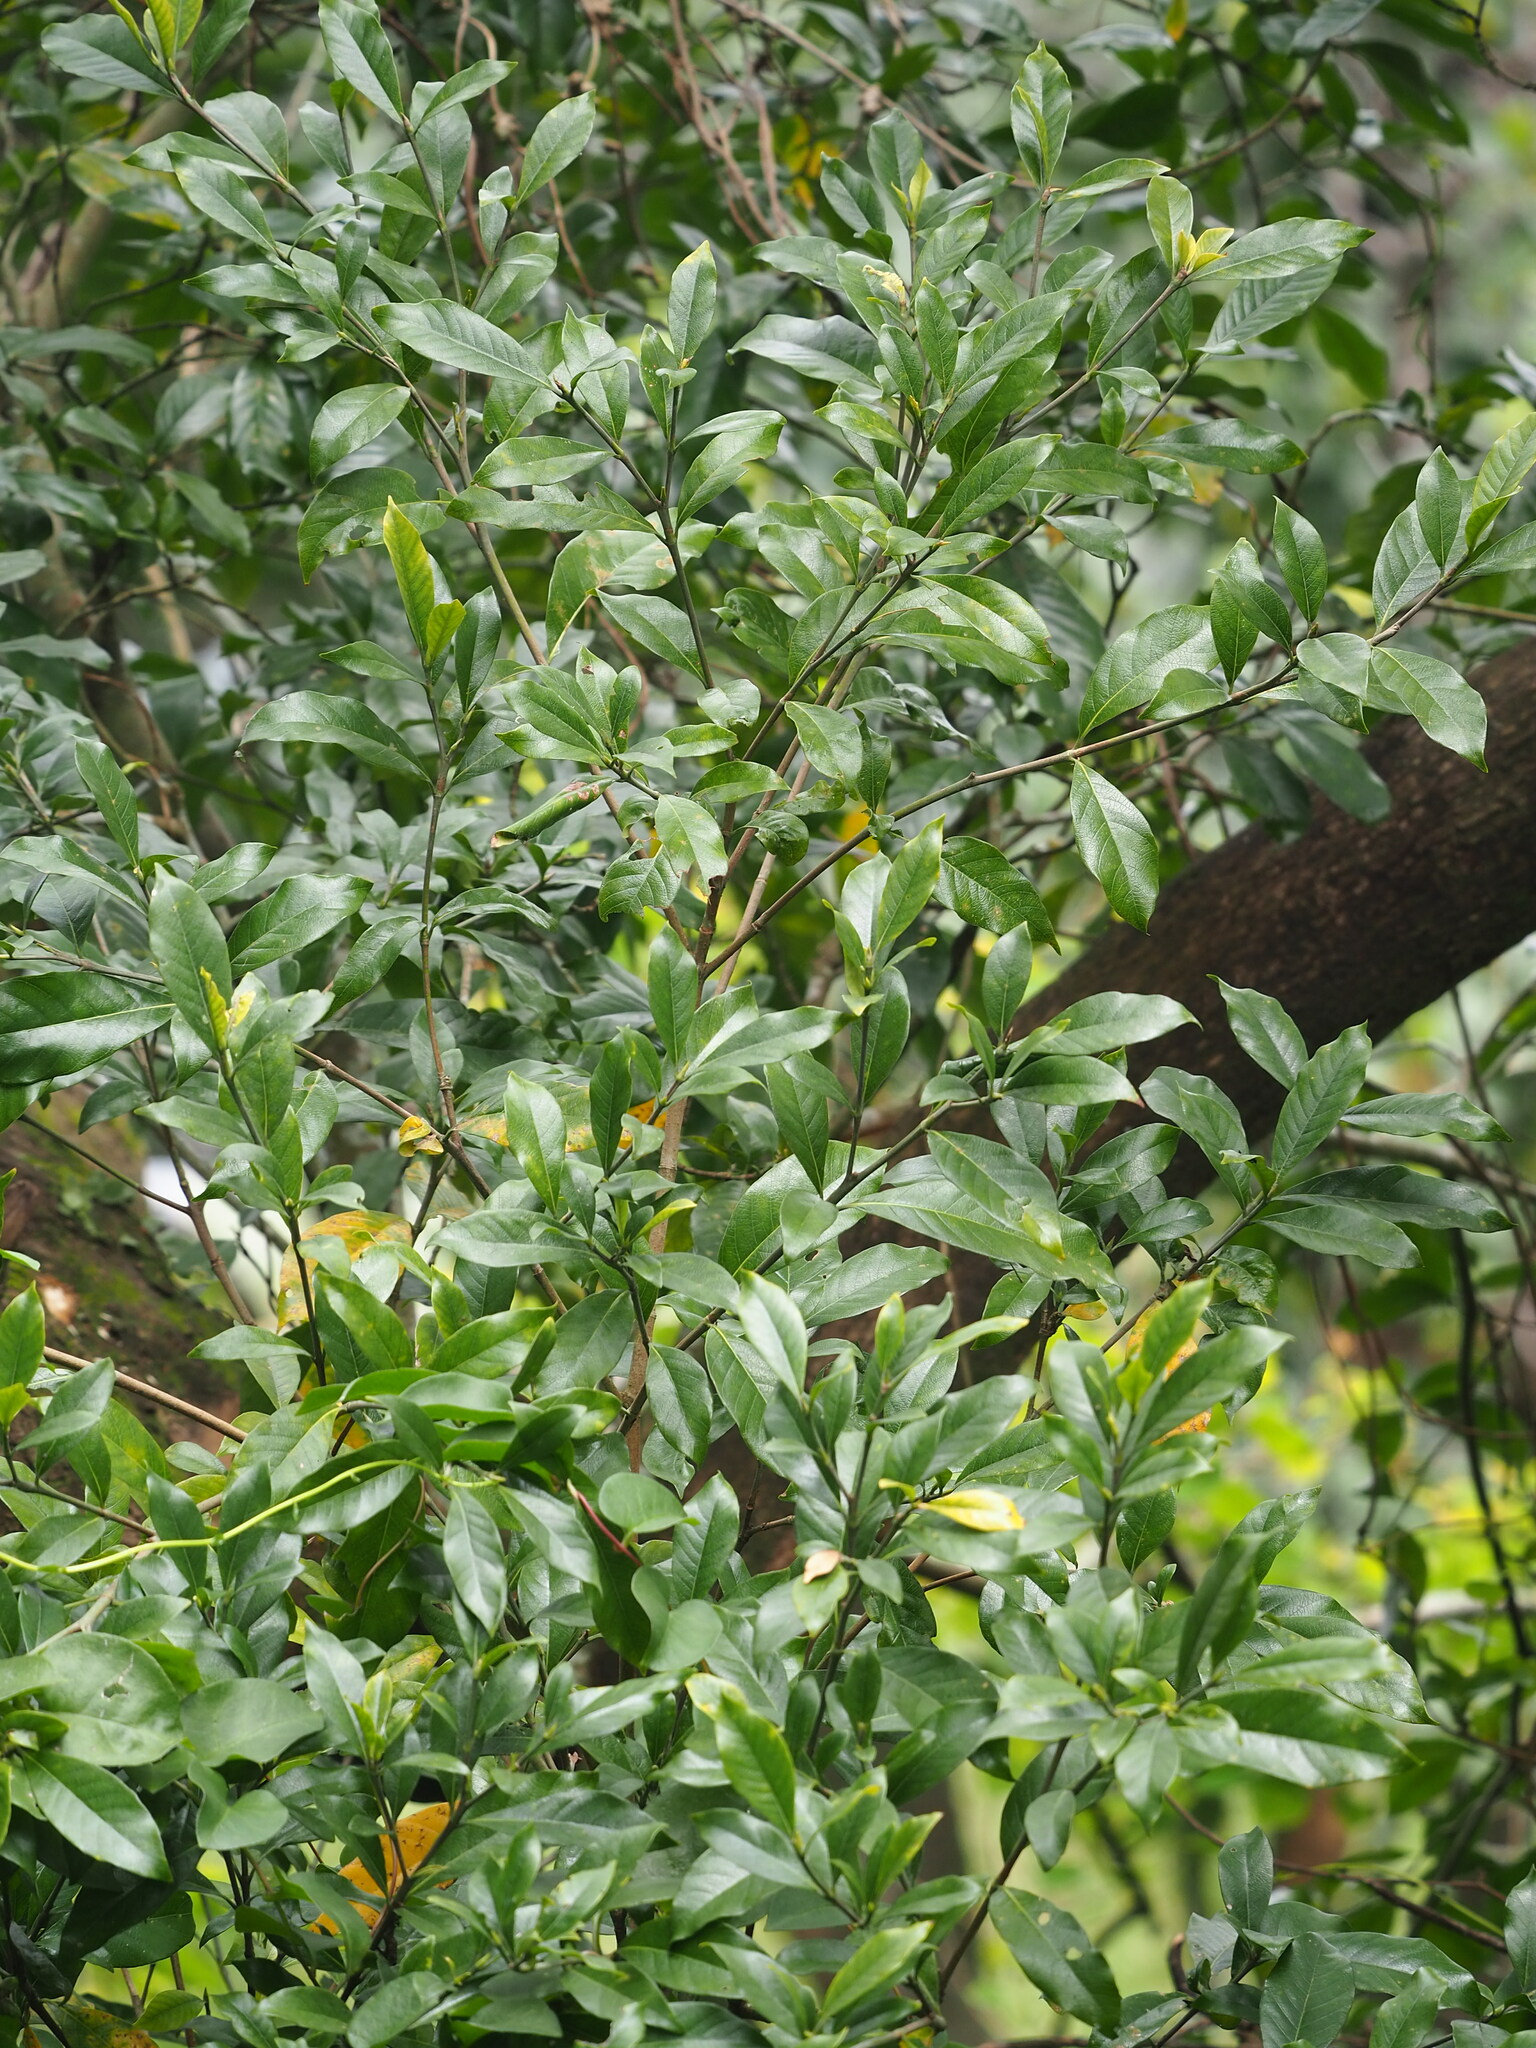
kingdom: Plantae
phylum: Tracheophyta
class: Magnoliopsida
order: Gentianales
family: Rubiaceae
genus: Gardenia
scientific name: Gardenia jasminoides
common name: Cape-jasmine
